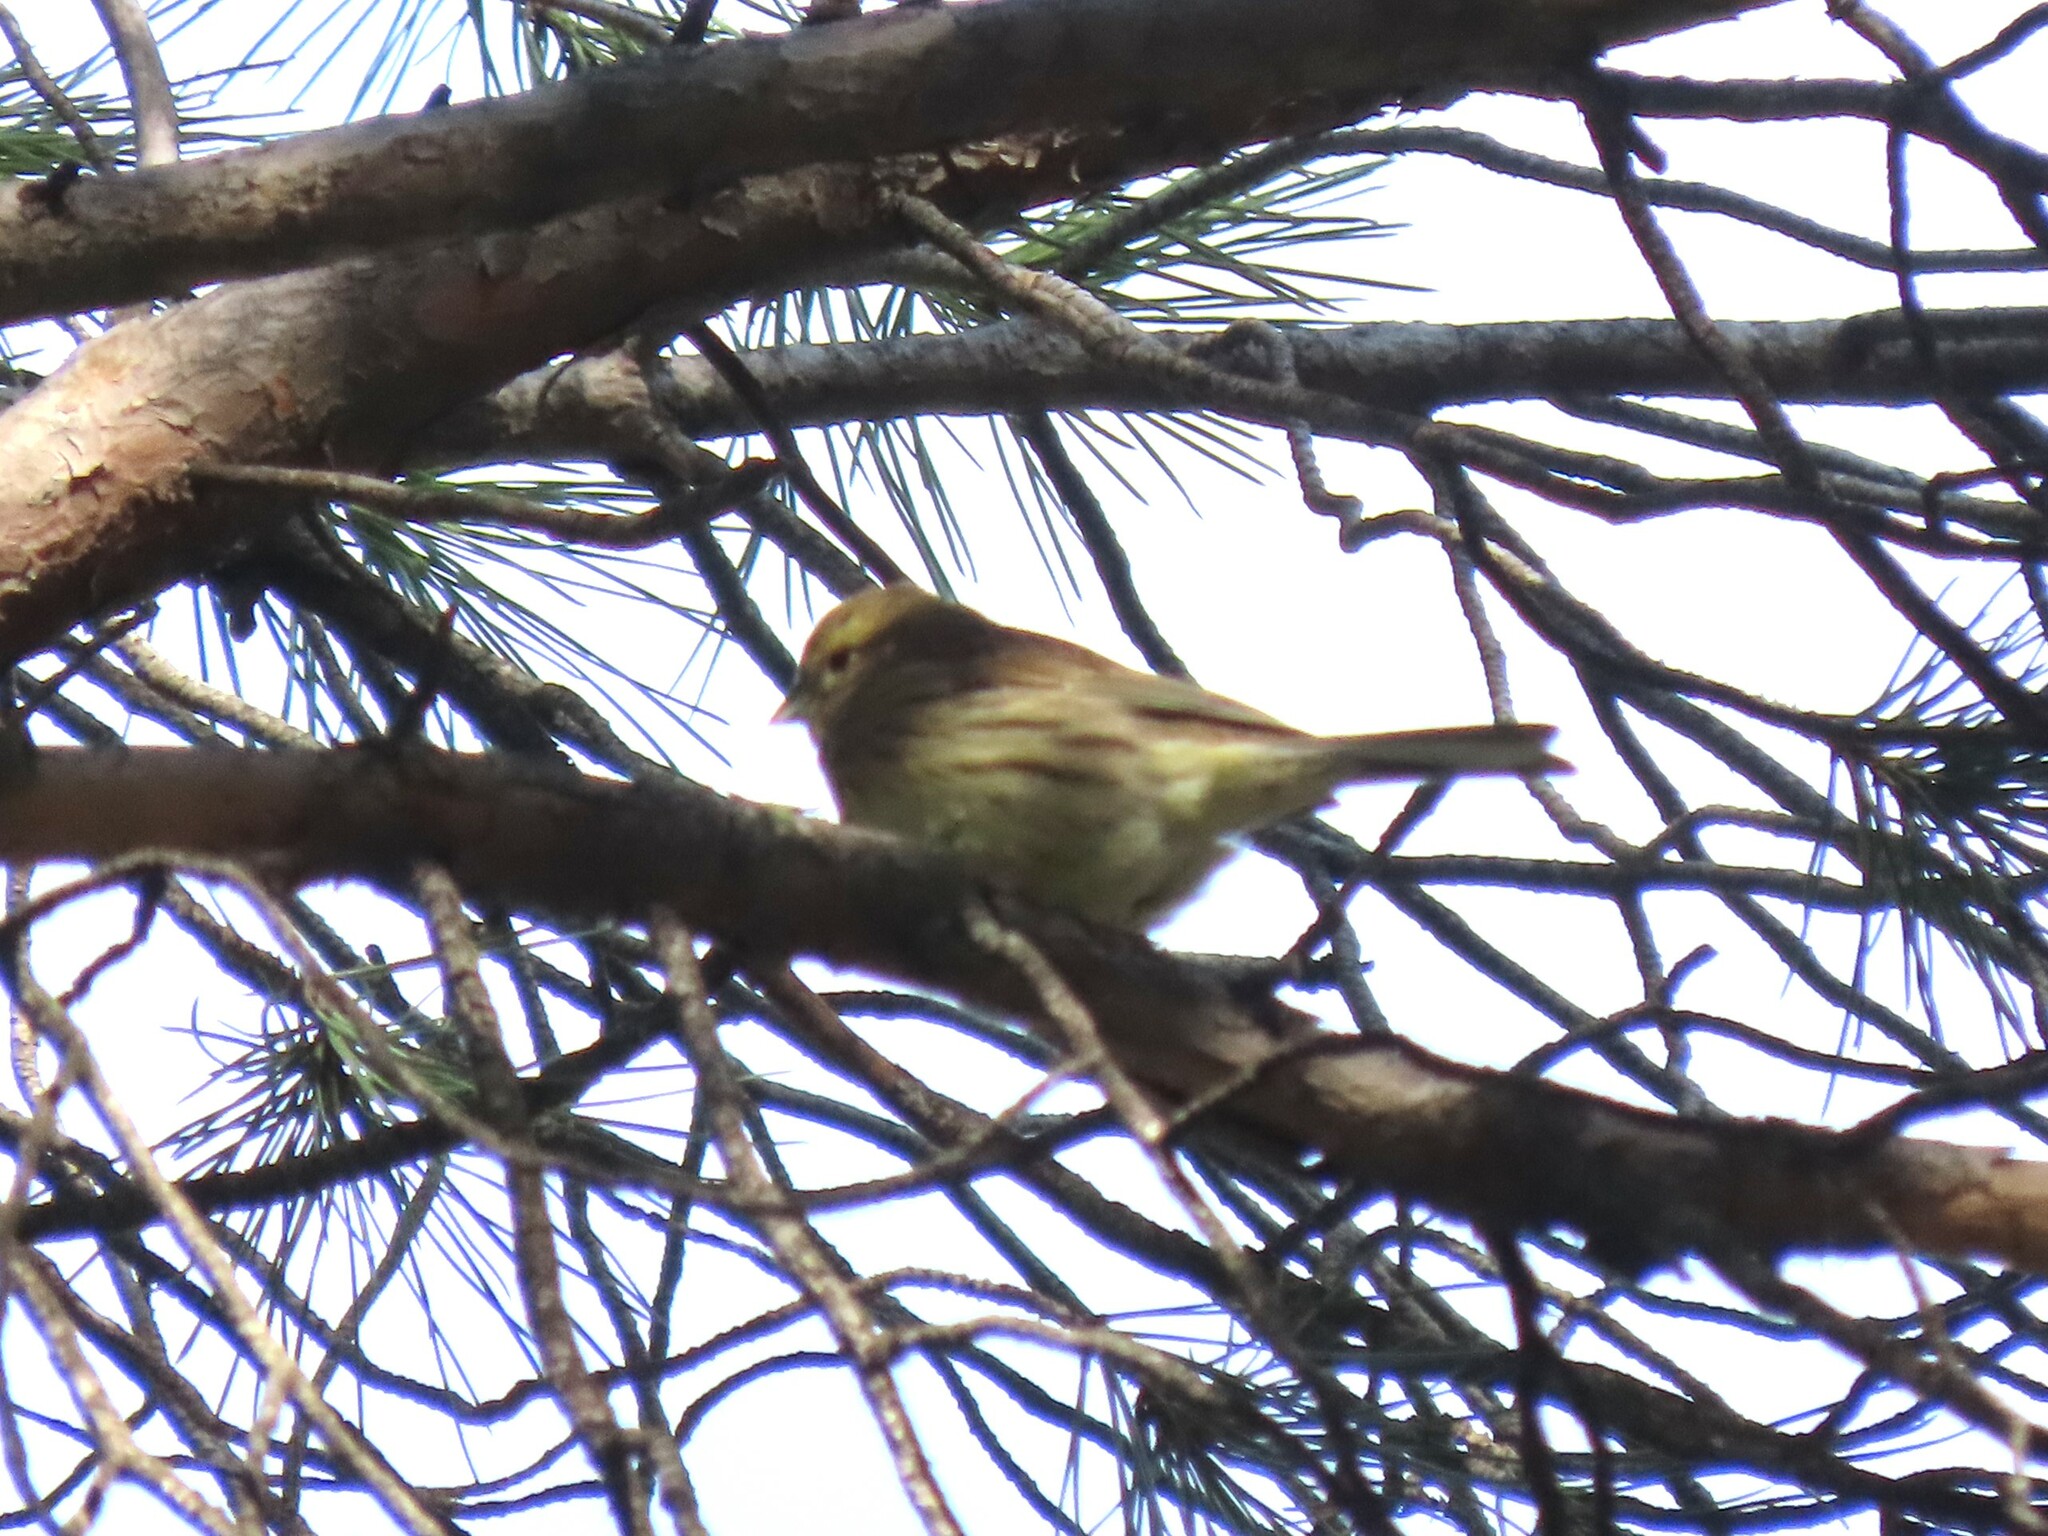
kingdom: Animalia
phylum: Chordata
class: Aves
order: Passeriformes
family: Emberizidae
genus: Emberiza
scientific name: Emberiza cirlus
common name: Cirl bunting
